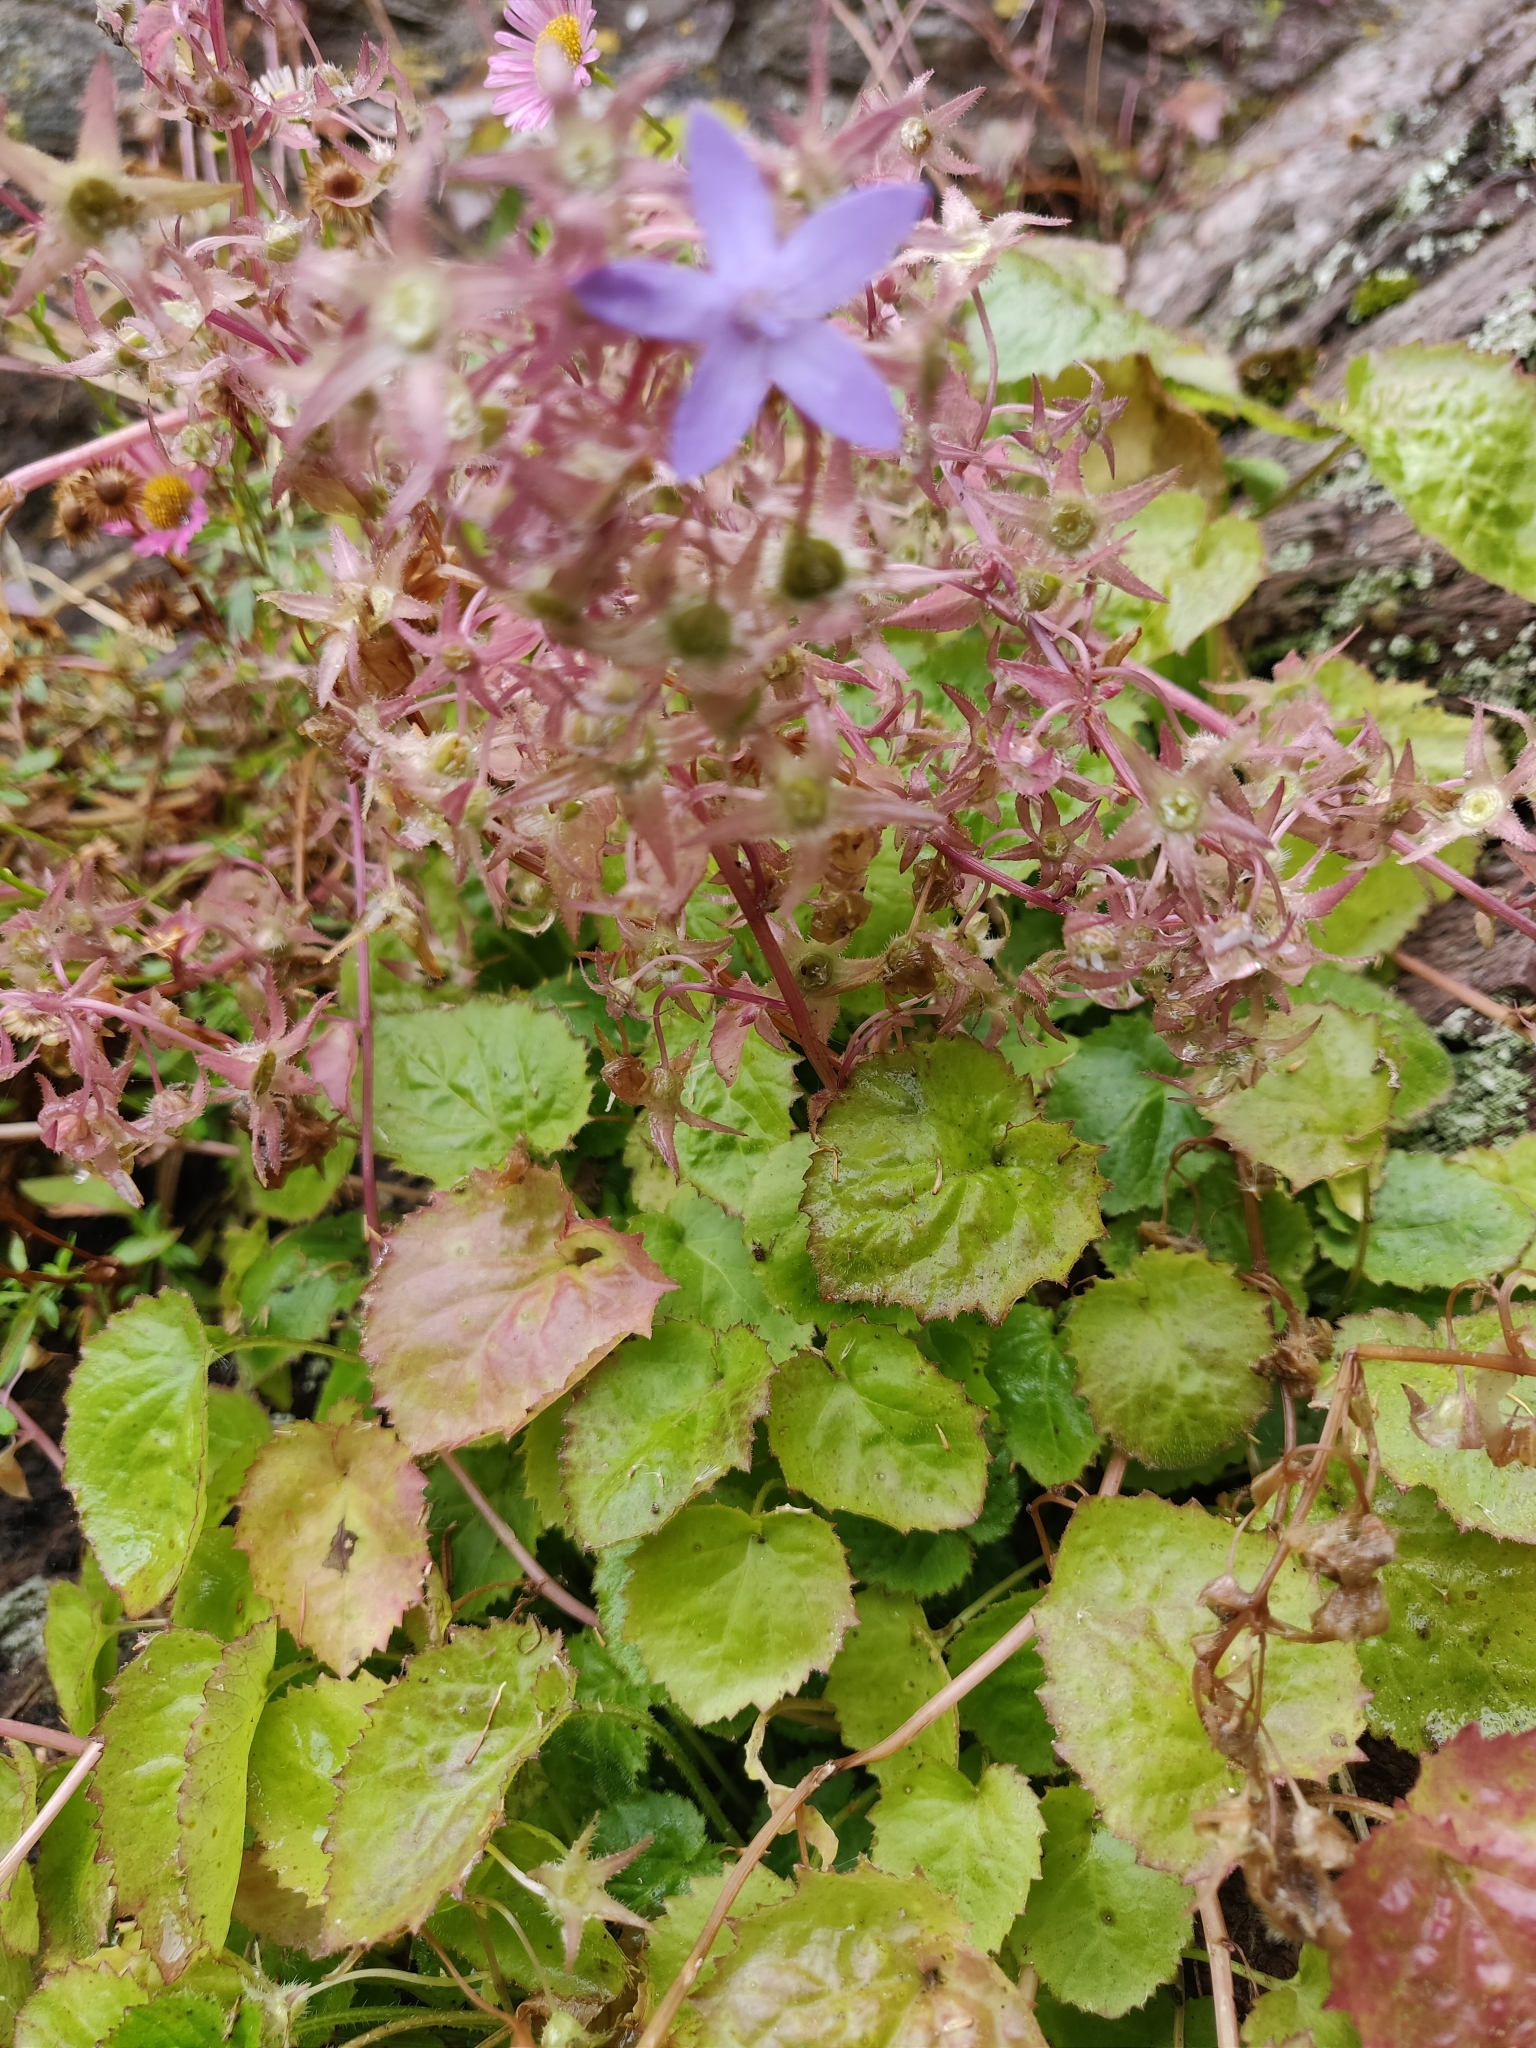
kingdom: Plantae
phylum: Tracheophyta
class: Magnoliopsida
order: Asterales
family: Campanulaceae
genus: Campanula
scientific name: Campanula poscharskyana
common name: Trailing bellflower
